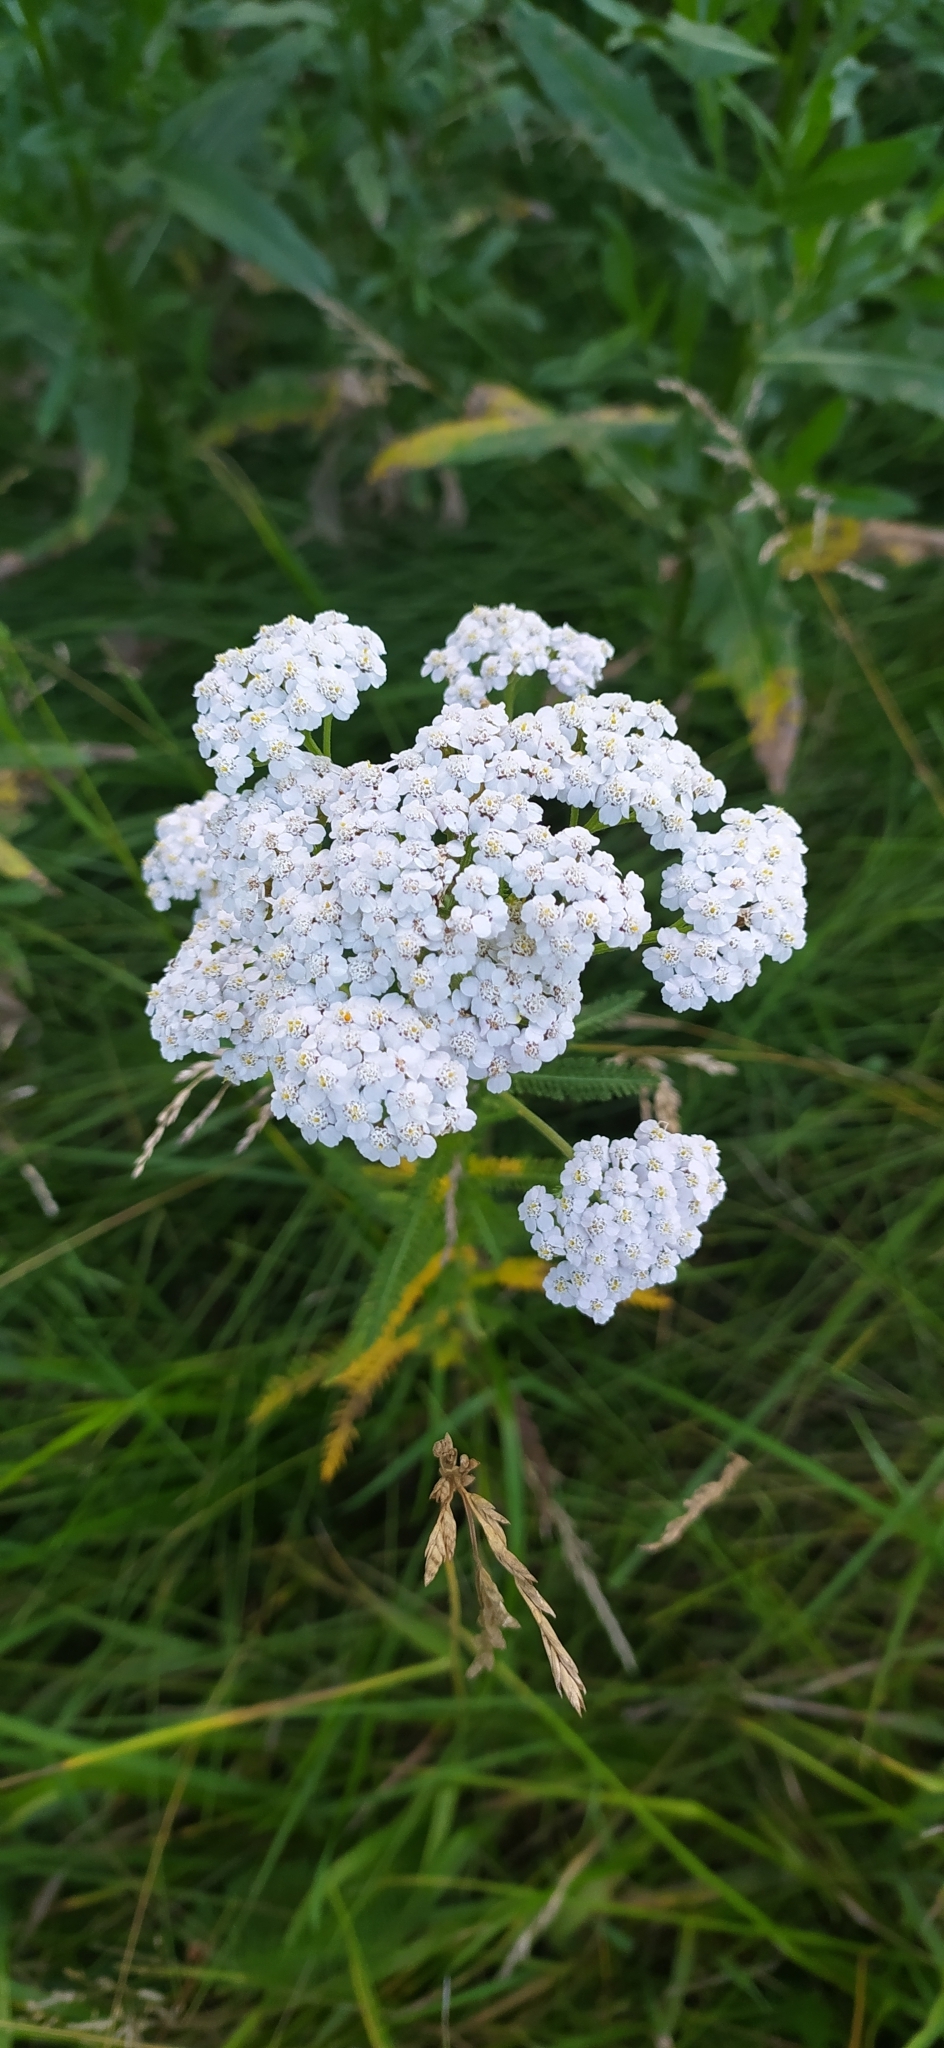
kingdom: Plantae
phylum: Tracheophyta
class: Magnoliopsida
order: Asterales
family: Asteraceae
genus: Achillea
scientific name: Achillea millefolium
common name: Yarrow
